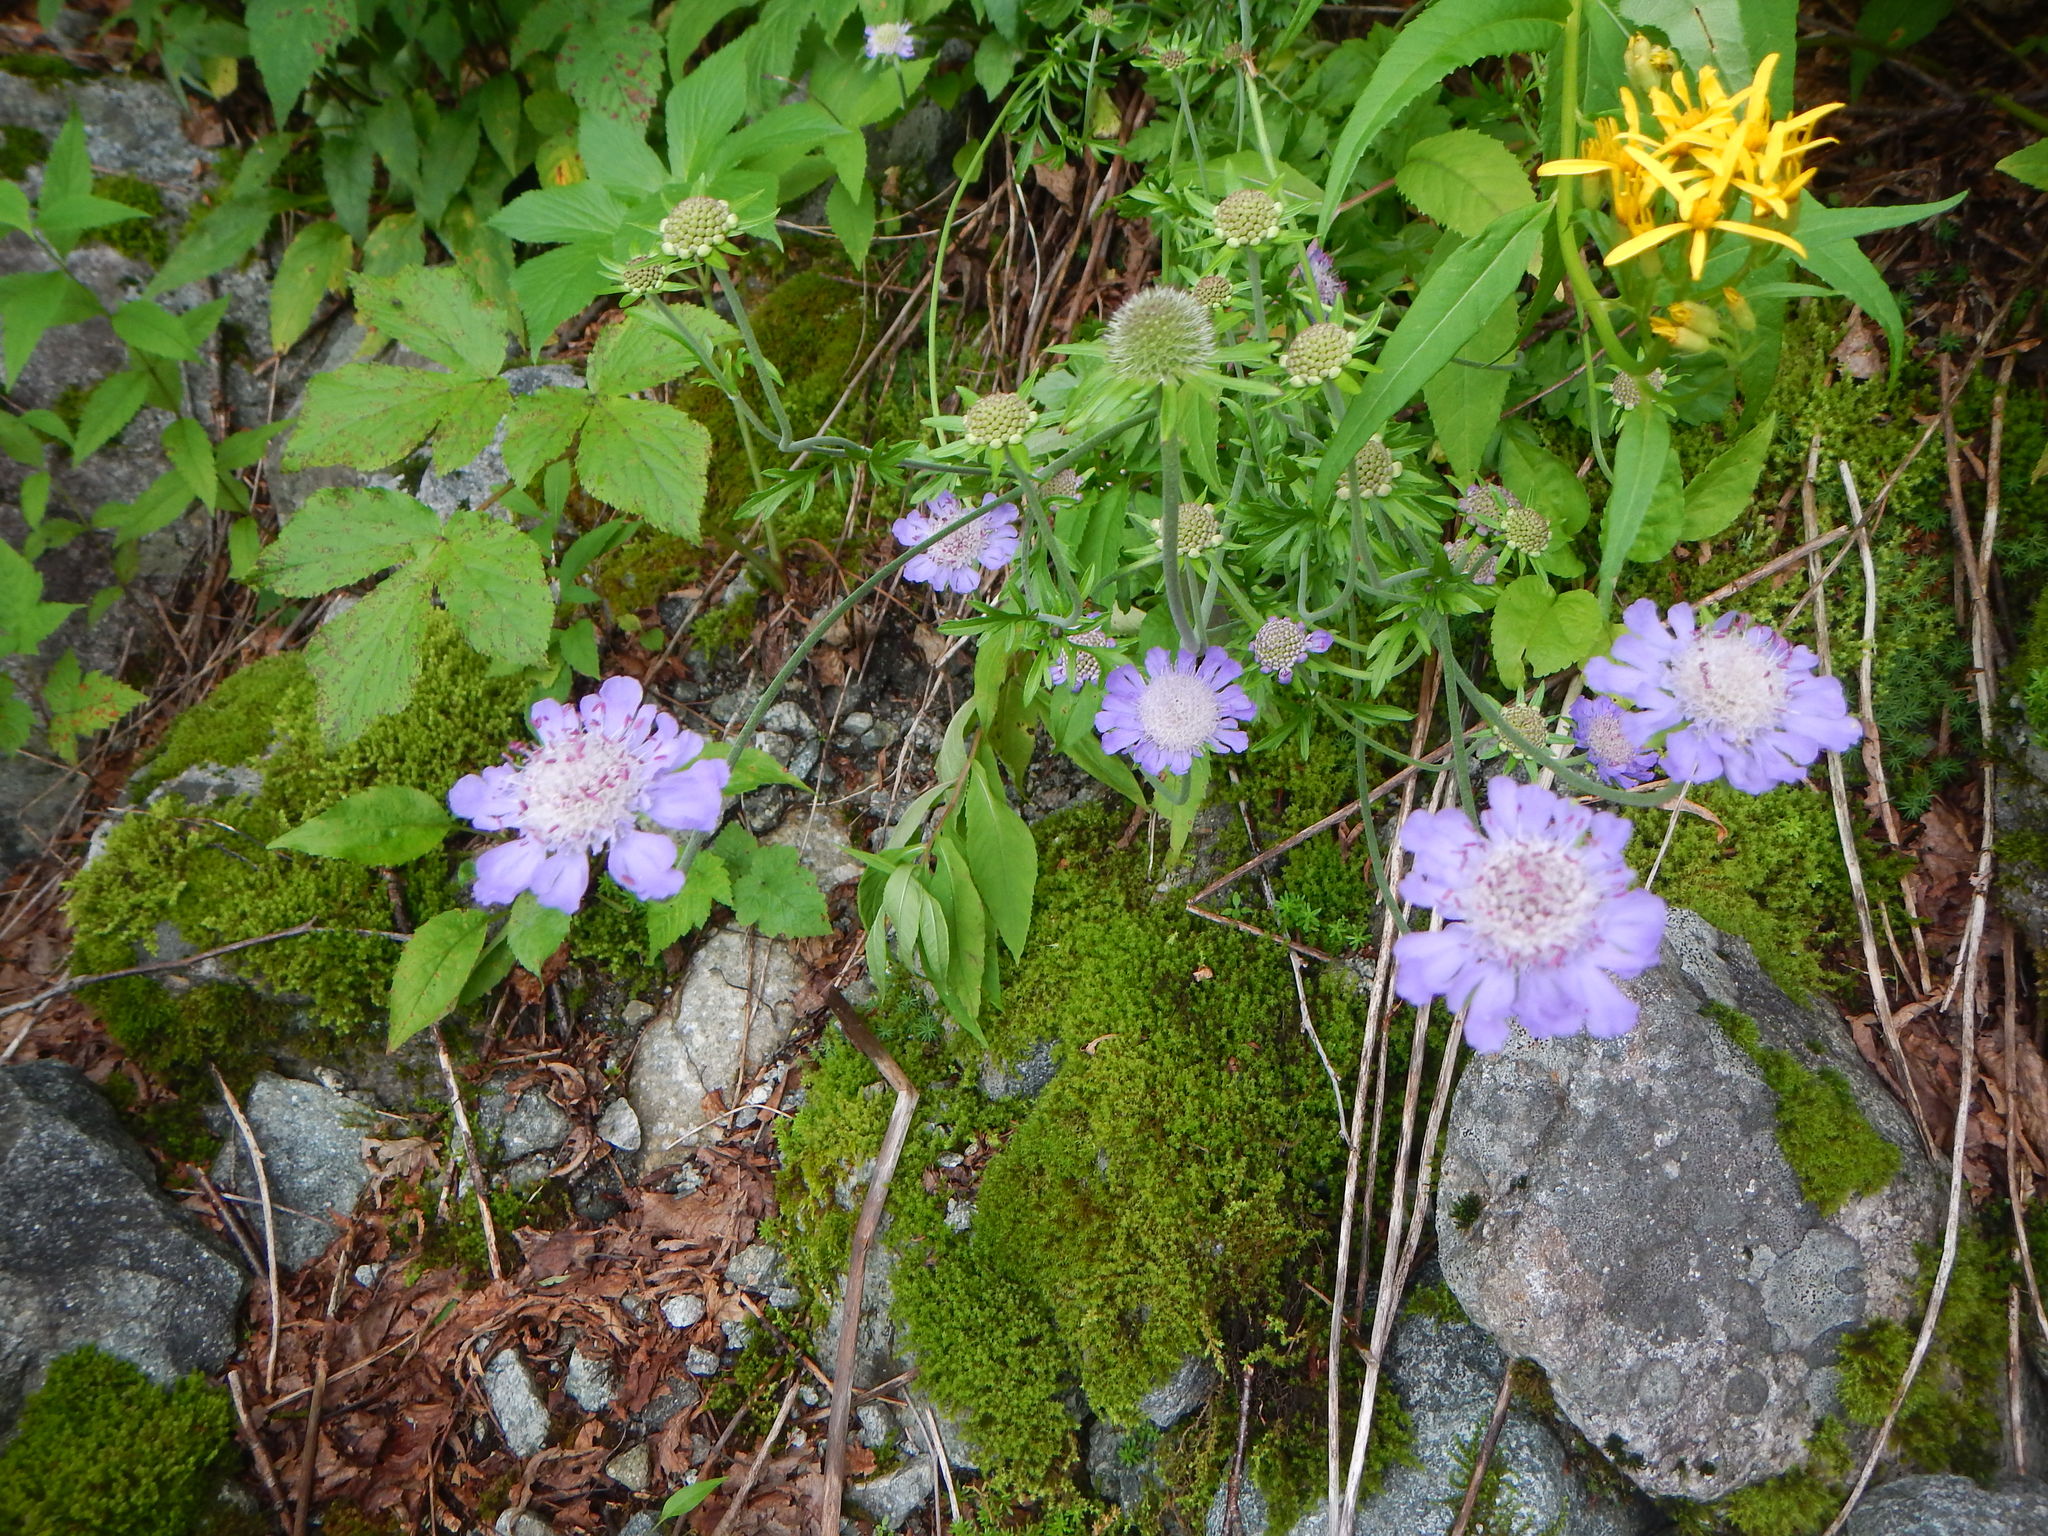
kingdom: Plantae
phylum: Tracheophyta
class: Magnoliopsida
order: Dipsacales
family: Caprifoliaceae
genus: Scabiosa
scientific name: Scabiosa japonica
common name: Pincushion-flower
